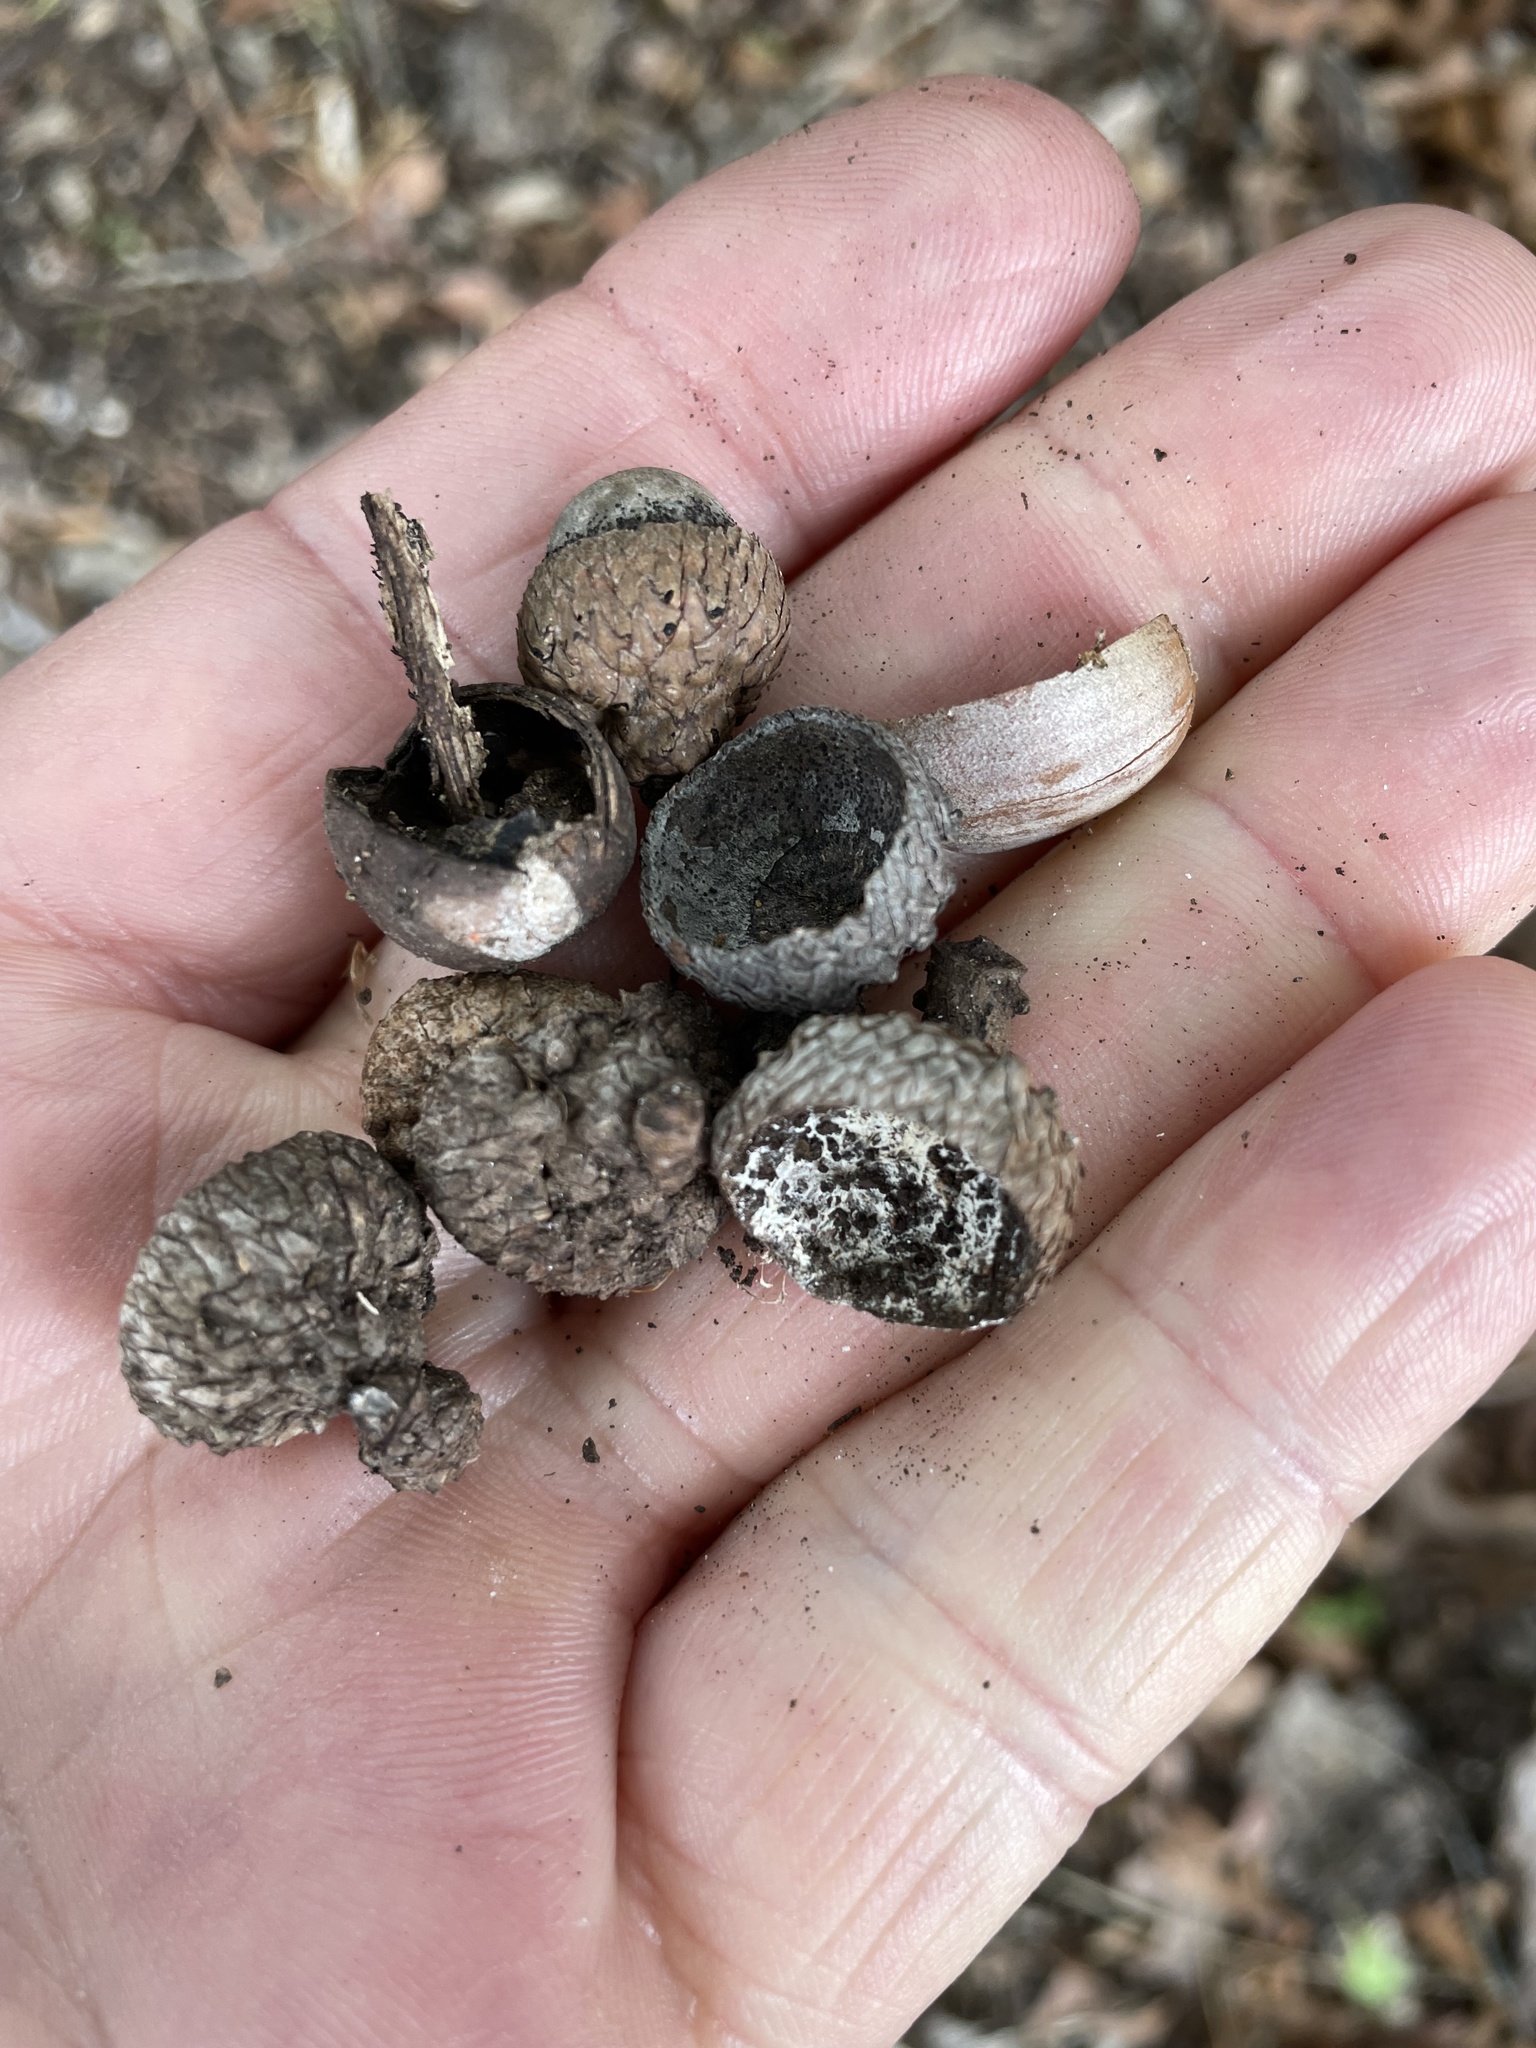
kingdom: Plantae
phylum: Tracheophyta
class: Magnoliopsida
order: Fagales
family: Fagaceae
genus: Quercus
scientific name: Quercus buckleyi
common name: Buckley oak
